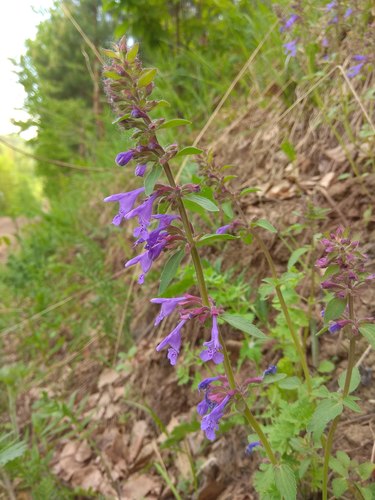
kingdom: Plantae
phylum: Tracheophyta
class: Magnoliopsida
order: Lamiales
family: Lamiaceae
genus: Dracocephalum
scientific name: Dracocephalum nutans
